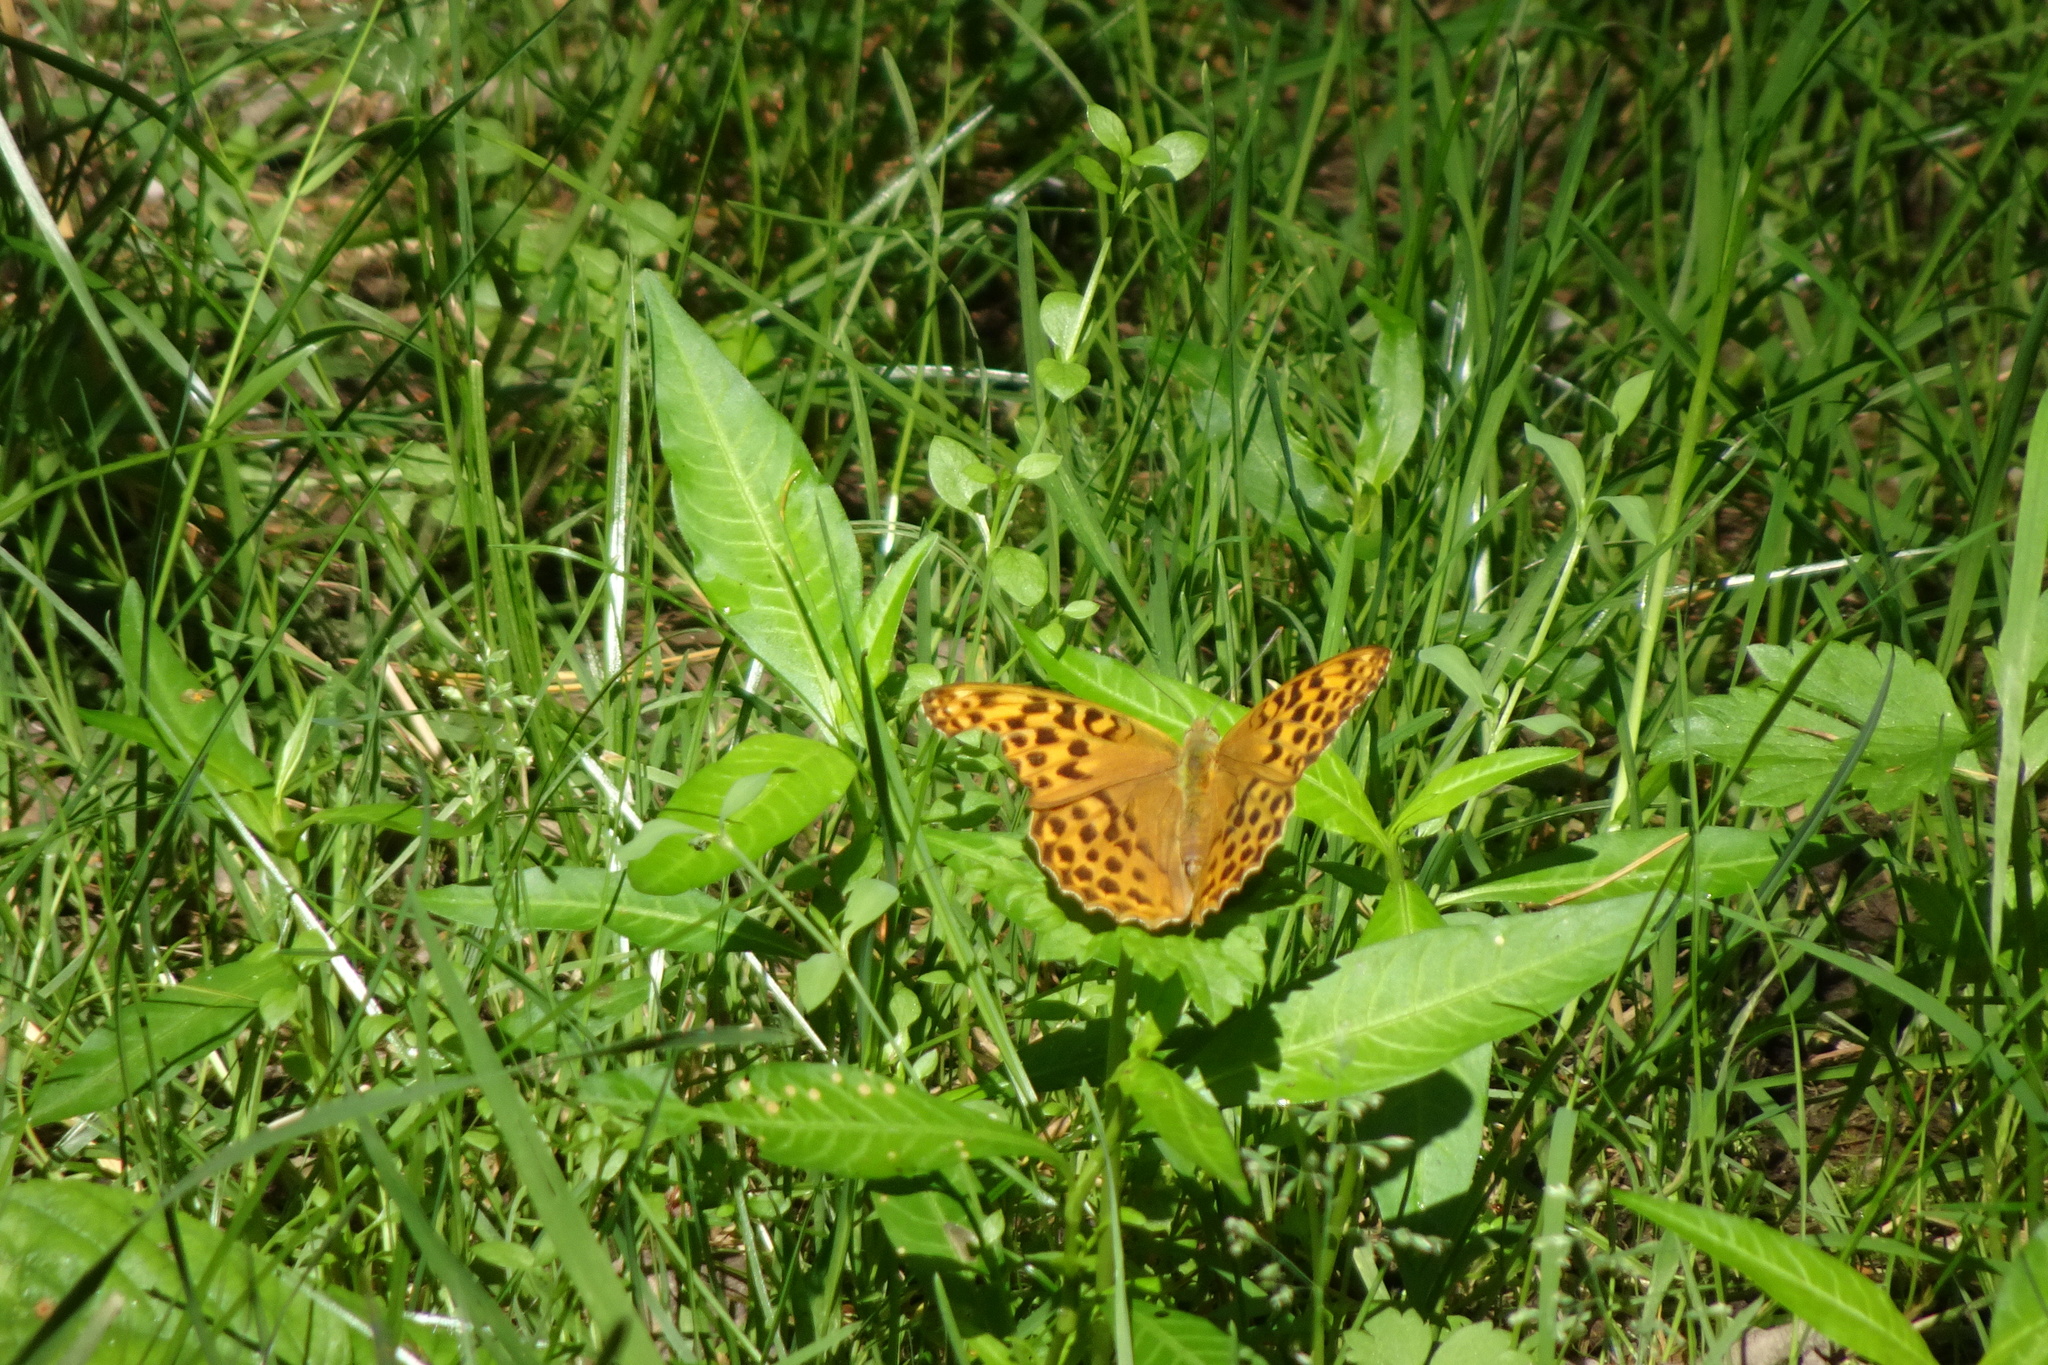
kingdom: Animalia
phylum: Arthropoda
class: Insecta
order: Lepidoptera
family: Nymphalidae
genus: Argynnis
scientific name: Argynnis paphia
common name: Silver-washed fritillary
